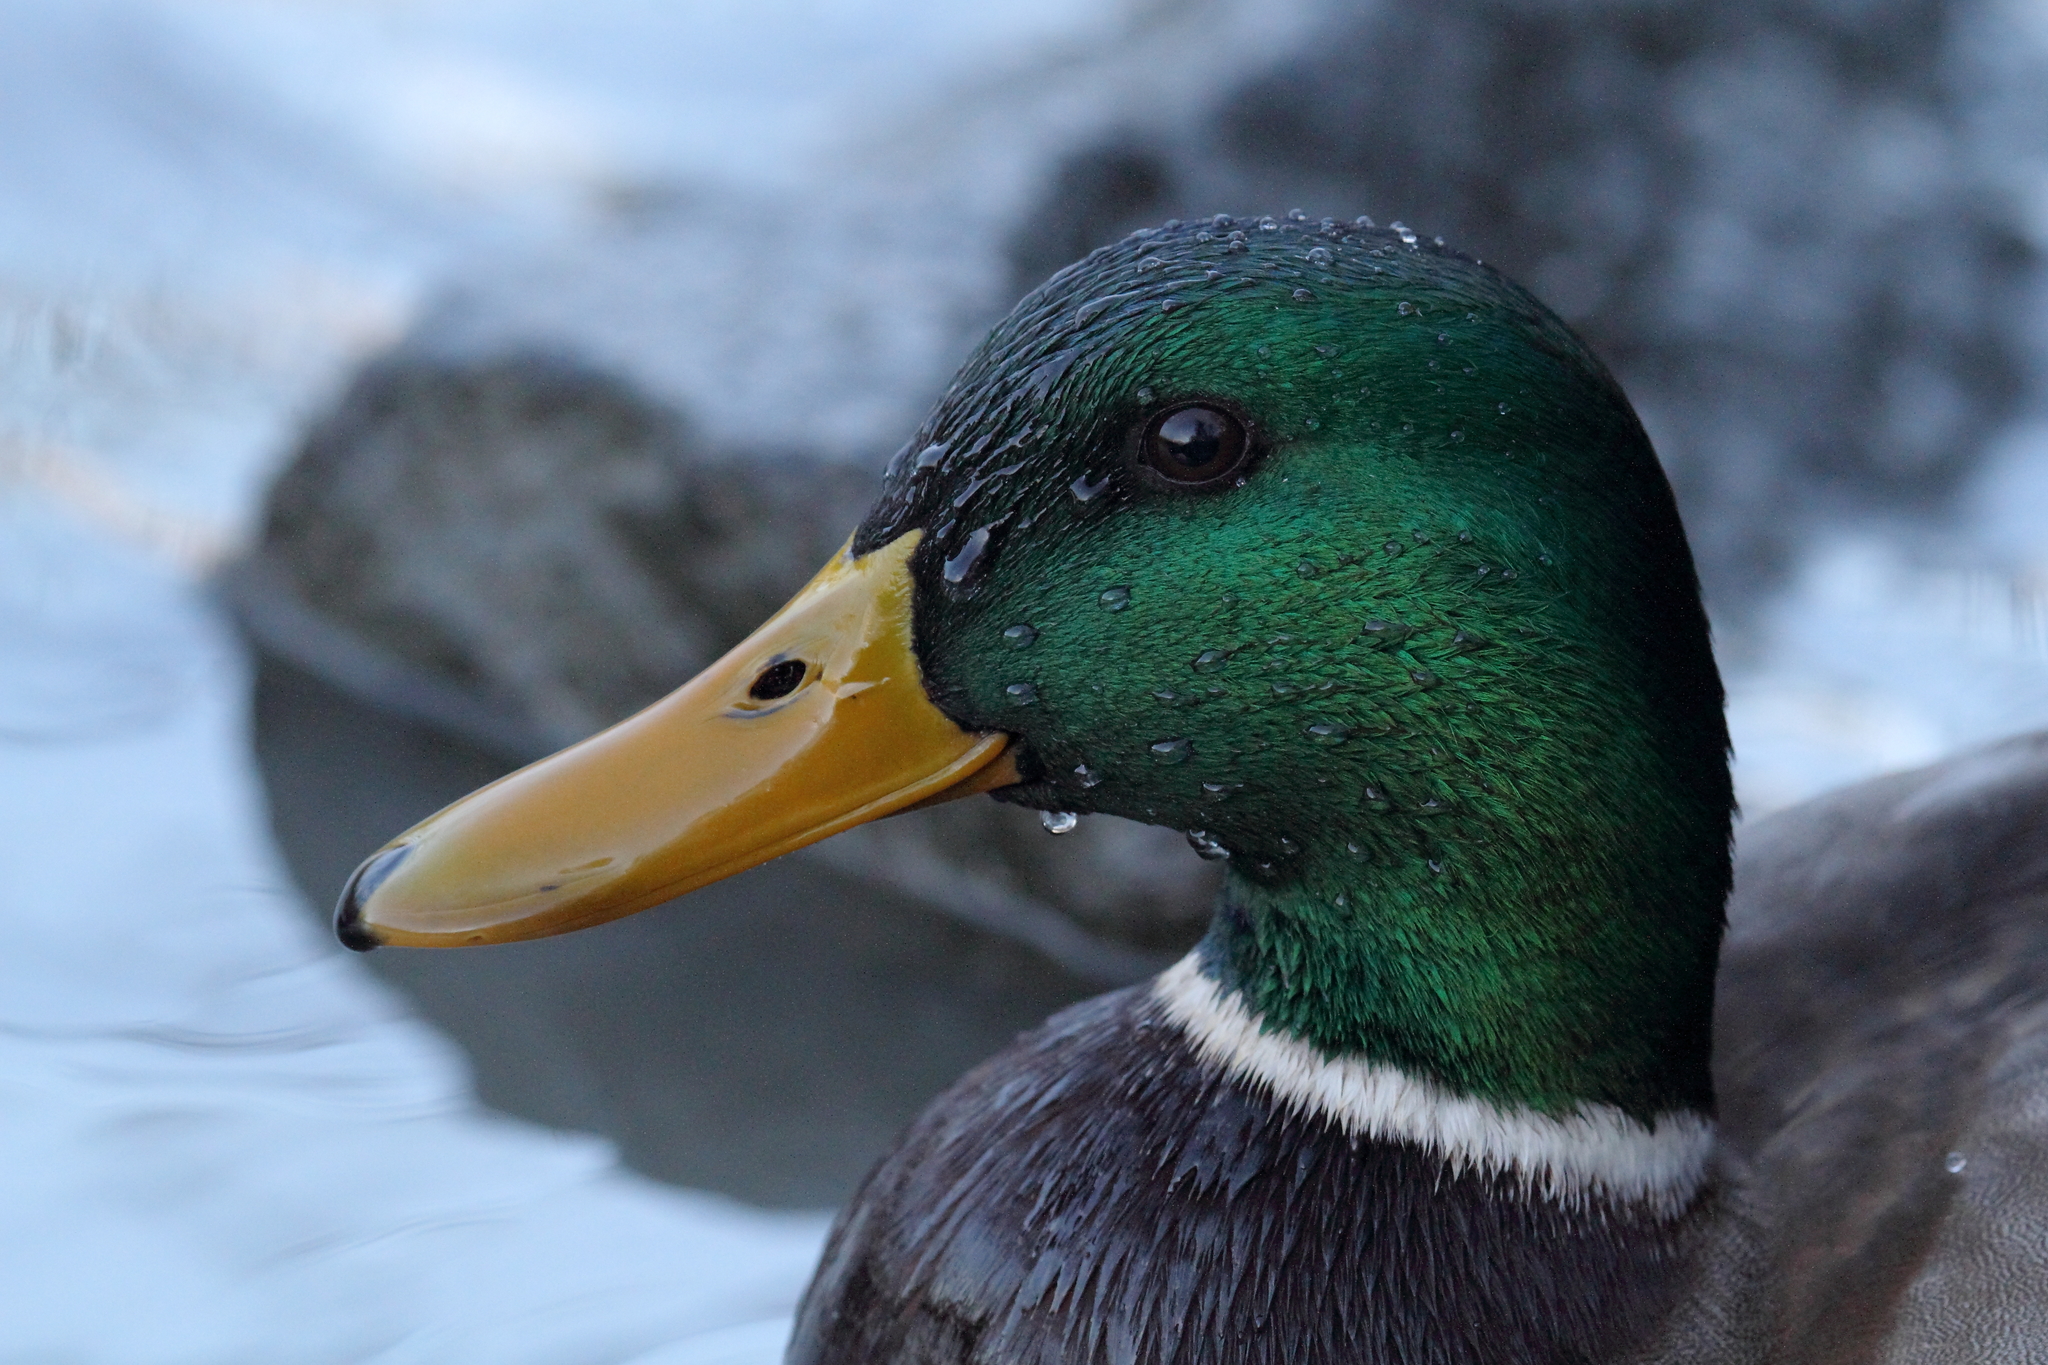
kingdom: Animalia
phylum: Chordata
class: Aves
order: Anseriformes
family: Anatidae
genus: Anas
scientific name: Anas platyrhynchos
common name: Mallard
